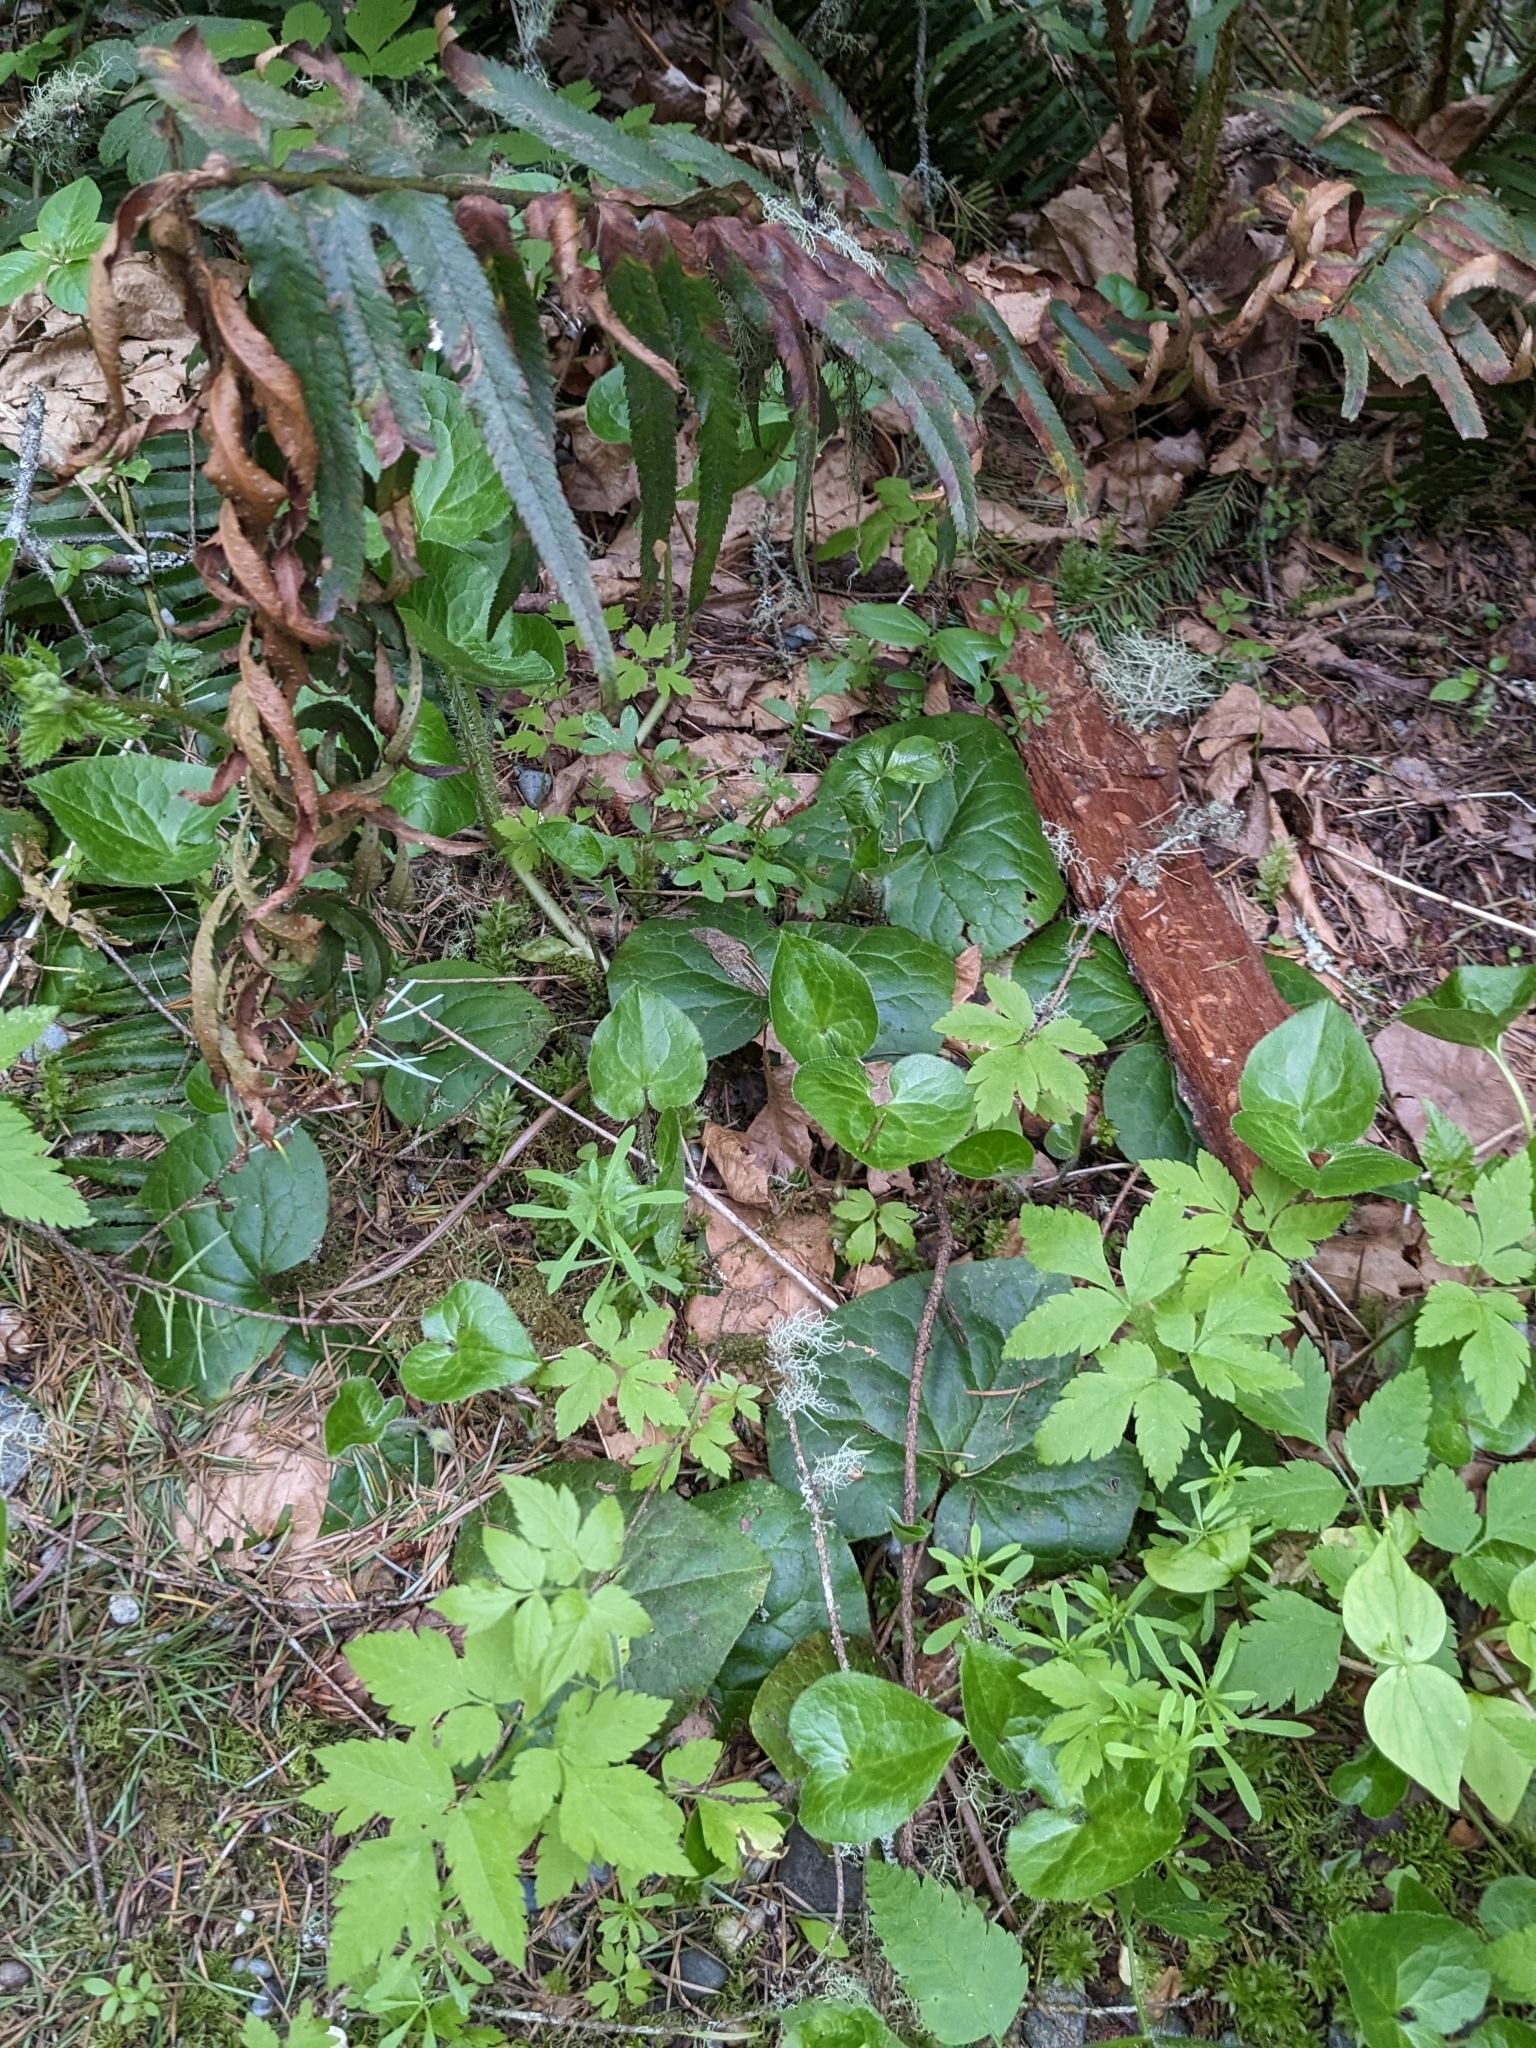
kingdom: Plantae
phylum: Tracheophyta
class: Magnoliopsida
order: Piperales
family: Aristolochiaceae
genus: Asarum
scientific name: Asarum caudatum
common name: Wild ginger
